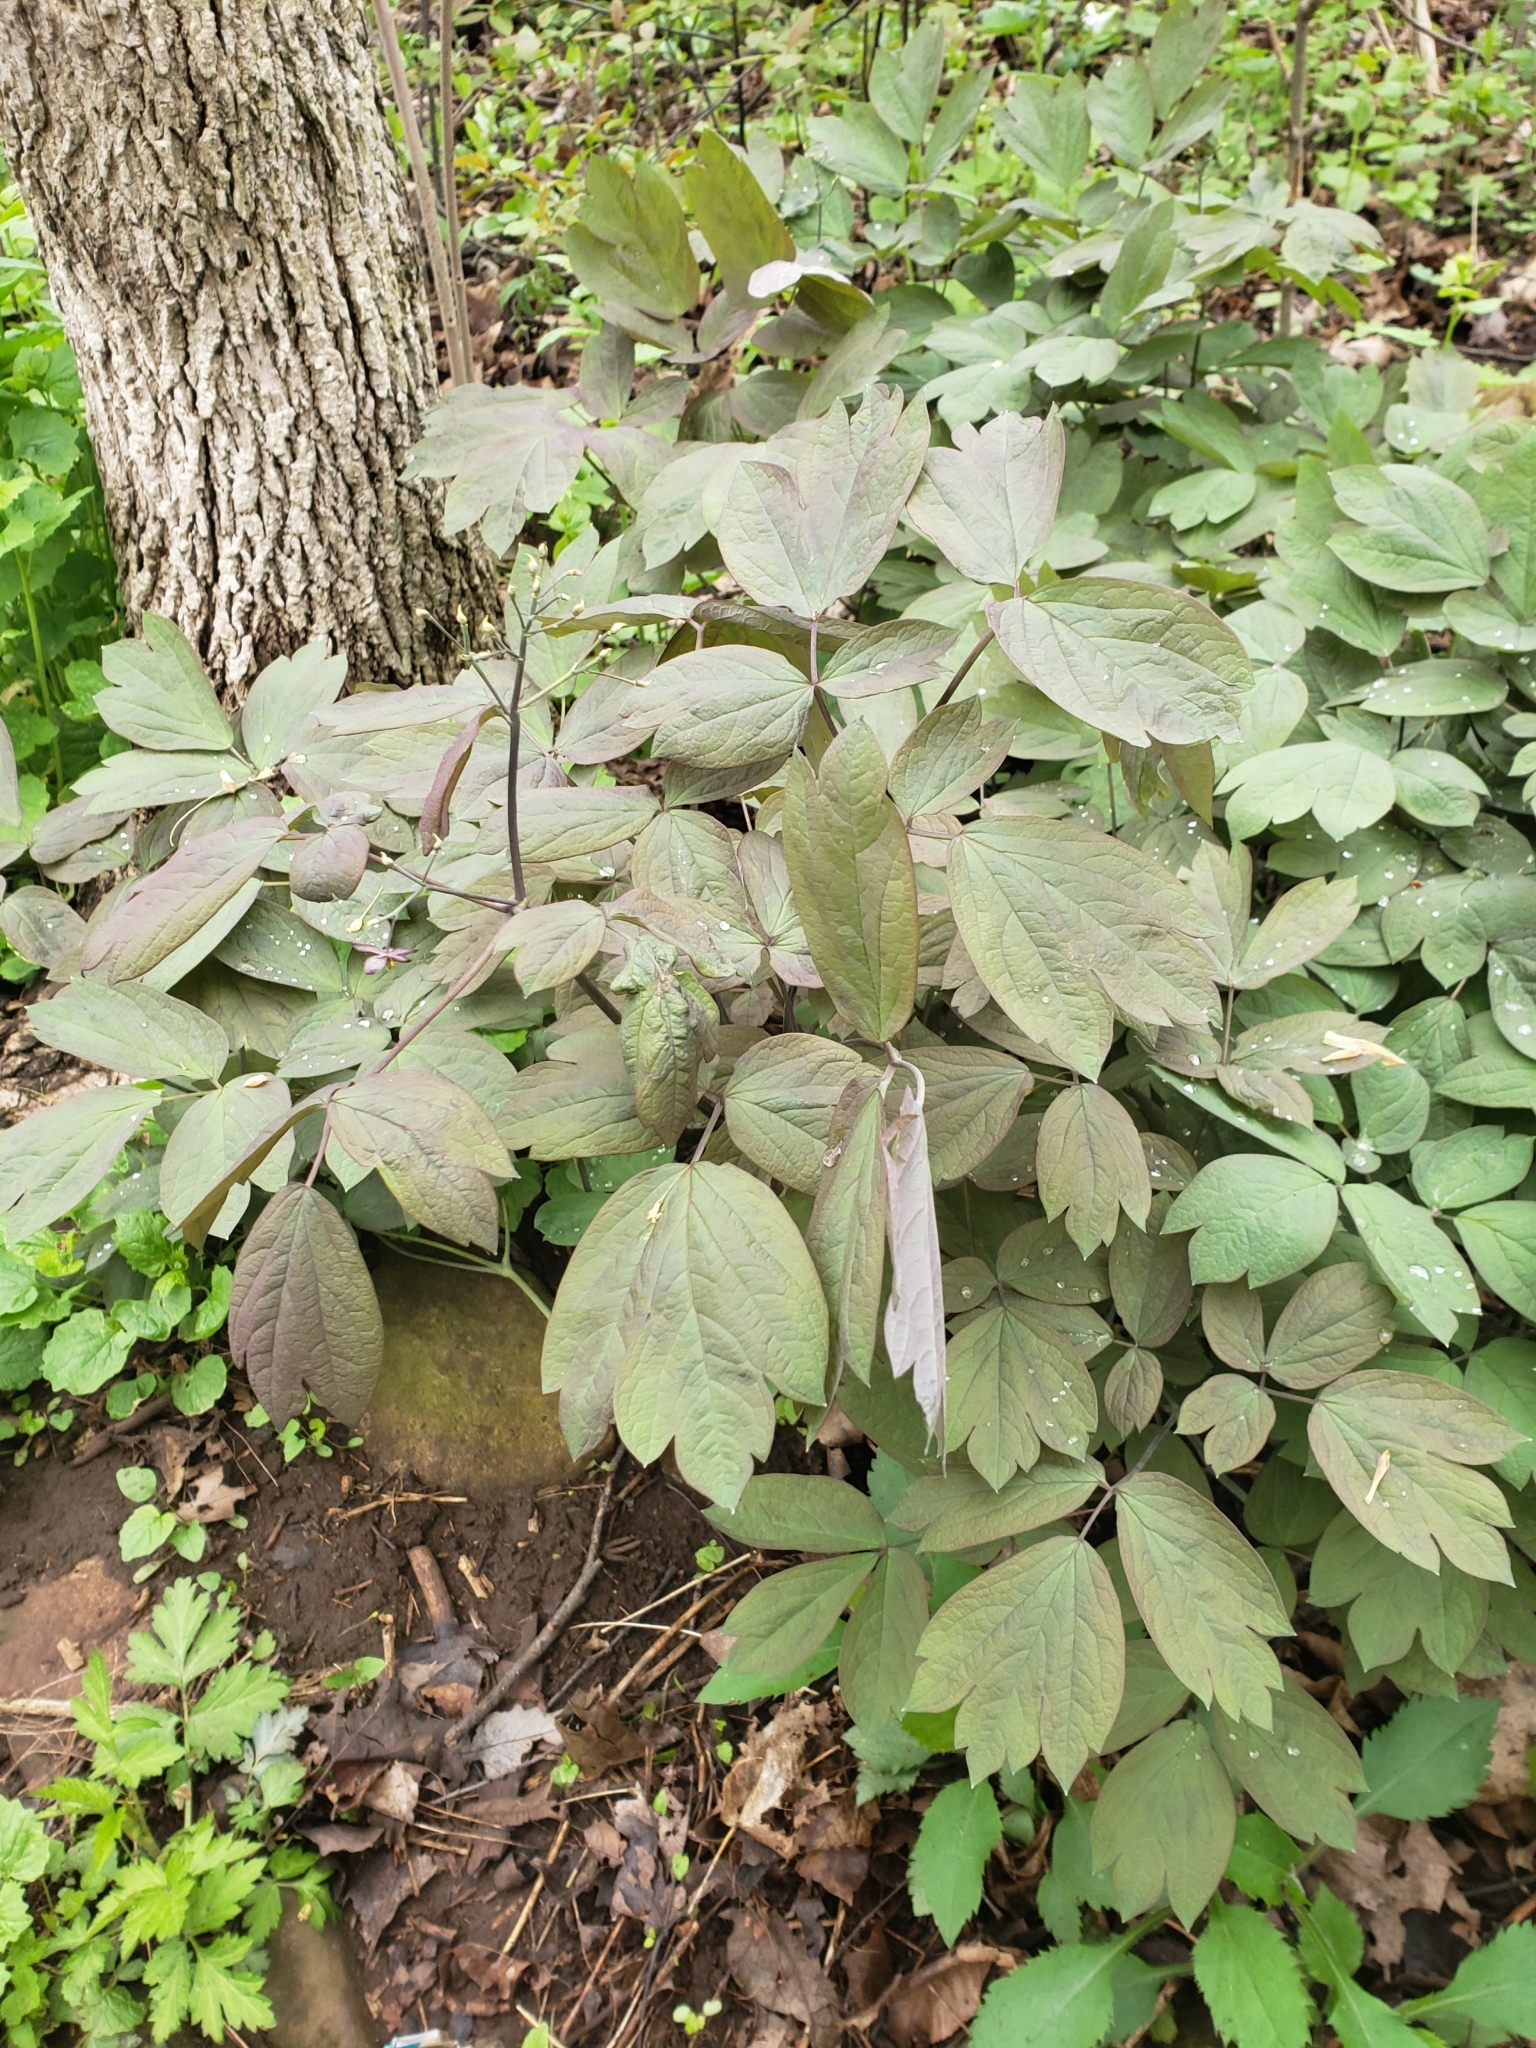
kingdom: Plantae
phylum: Tracheophyta
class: Magnoliopsida
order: Ranunculales
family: Berberidaceae
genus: Caulophyllum
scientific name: Caulophyllum giganteum
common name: Blue cohosh
